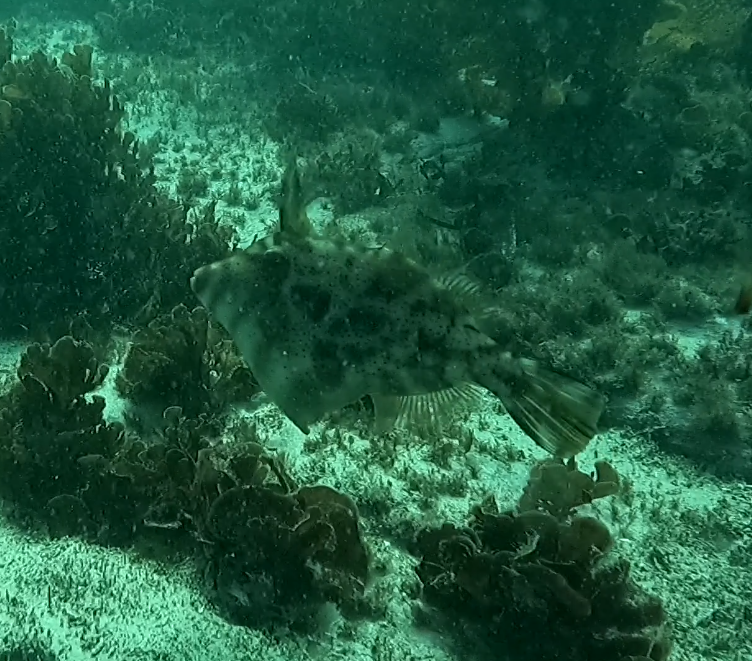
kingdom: Animalia
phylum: Chordata
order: Tetraodontiformes
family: Monacanthidae
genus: Scobinichthys
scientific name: Scobinichthys granulatus
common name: Rough leatherjacket
